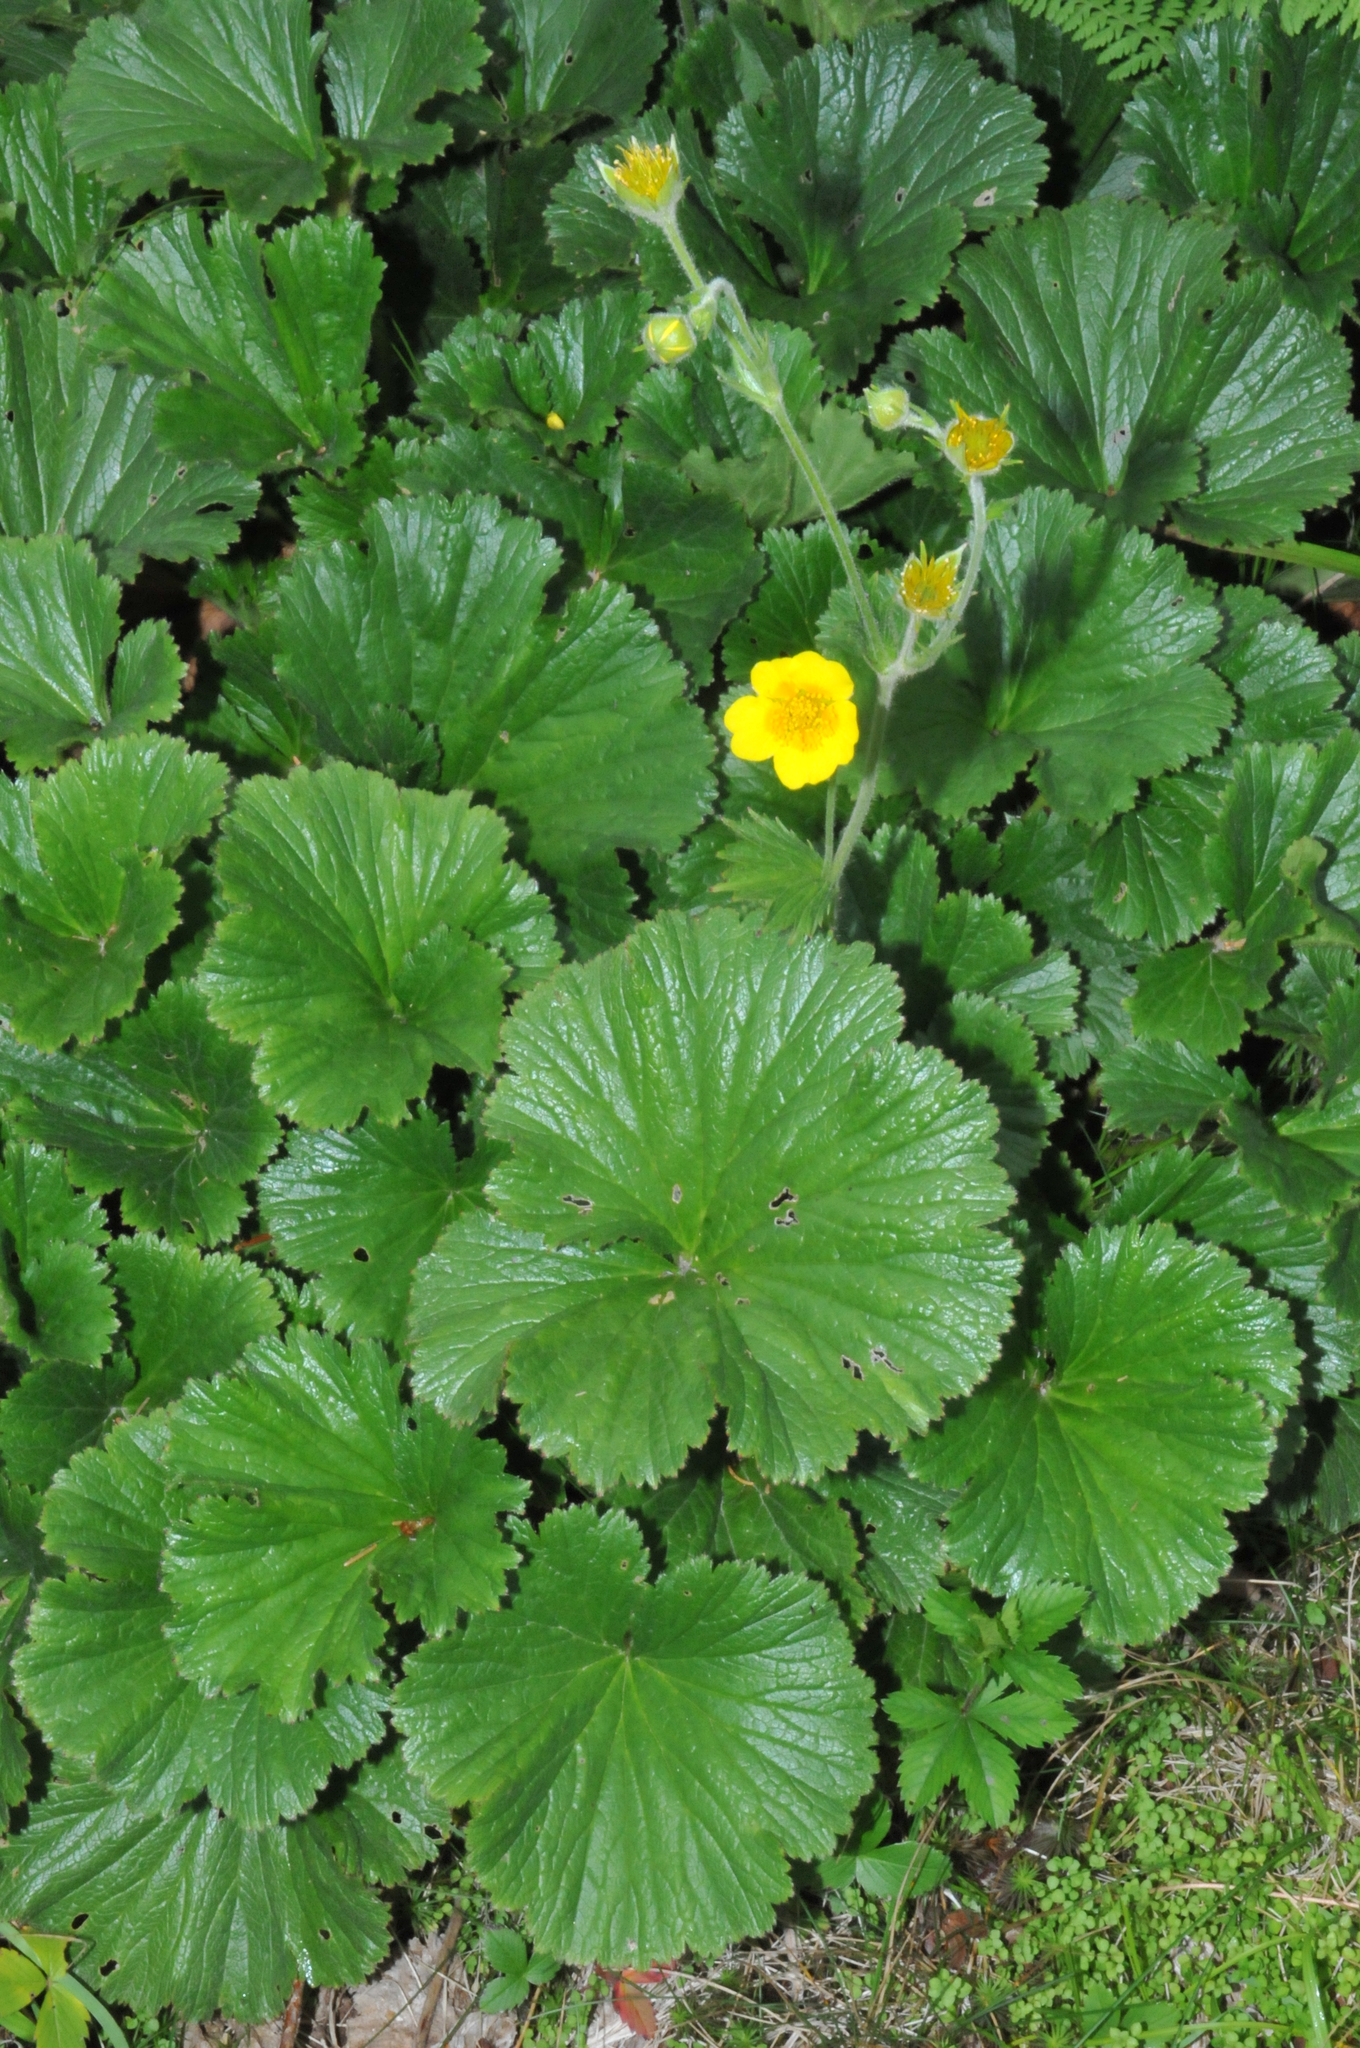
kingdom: Plantae
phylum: Tracheophyta
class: Magnoliopsida
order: Rosales
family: Rosaceae
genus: Geum
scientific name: Geum radiatum
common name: Spreaded avens
